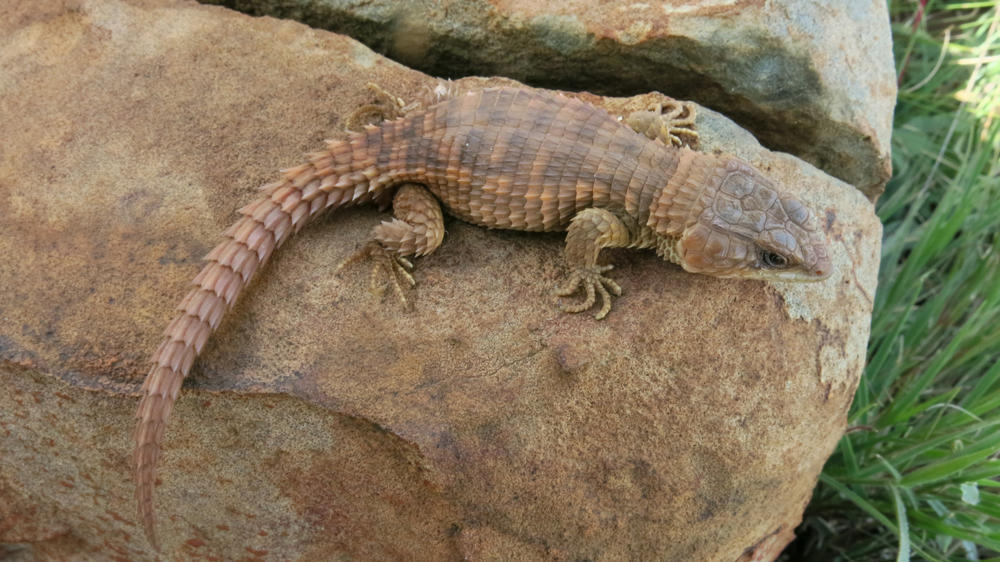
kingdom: Animalia
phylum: Chordata
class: Squamata
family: Cordylidae
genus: Cordylus
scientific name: Cordylus vittifer
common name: Common girdled lizard
